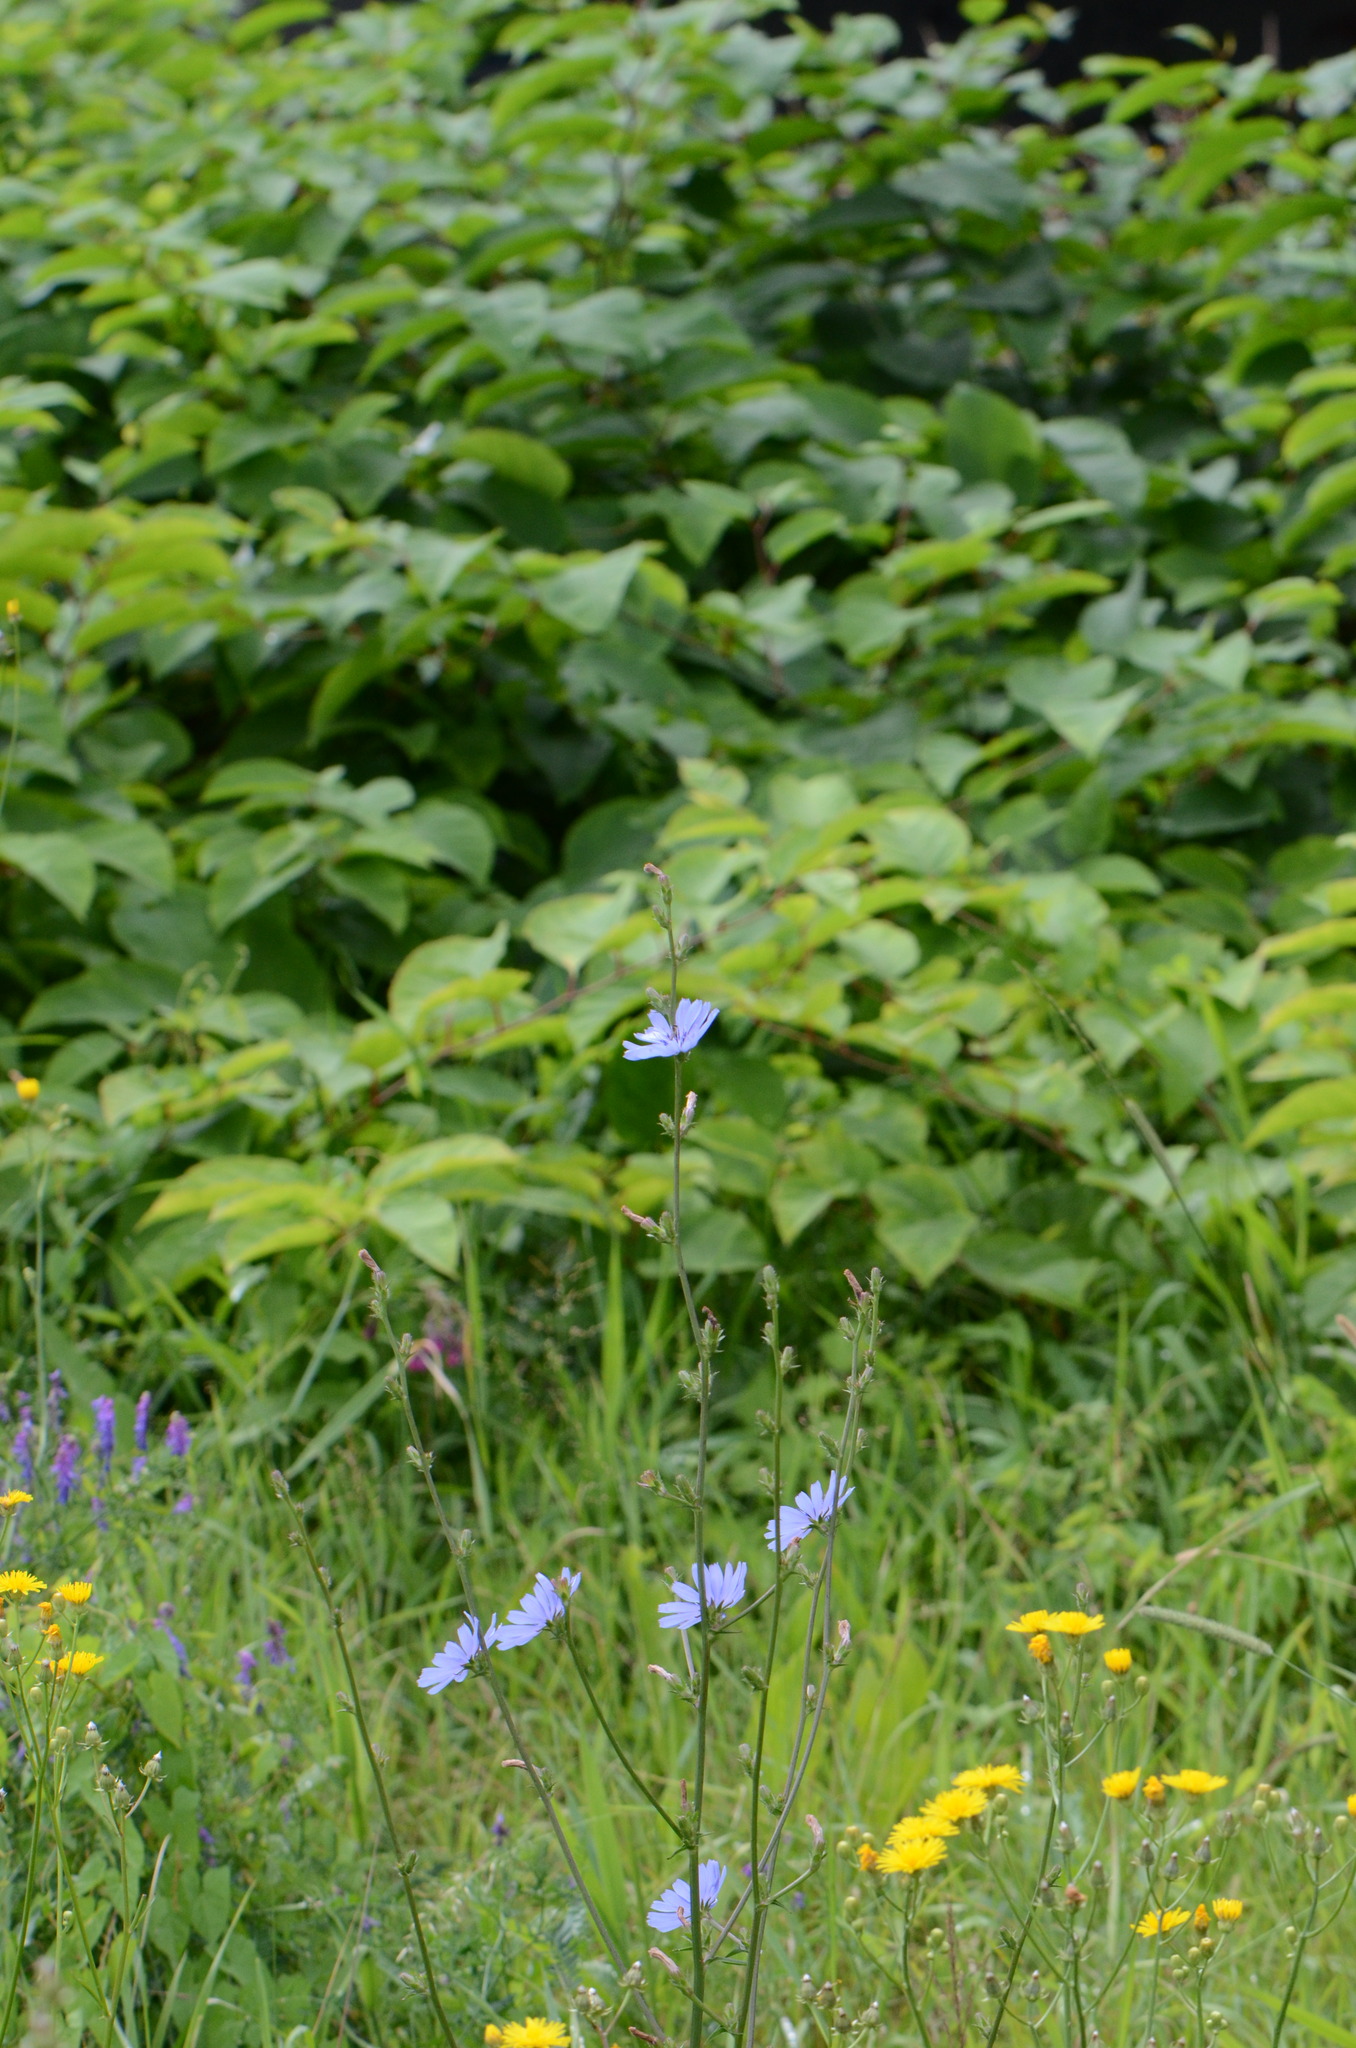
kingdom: Plantae
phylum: Tracheophyta
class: Magnoliopsida
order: Asterales
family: Asteraceae
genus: Cichorium
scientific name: Cichorium intybus
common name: Chicory
